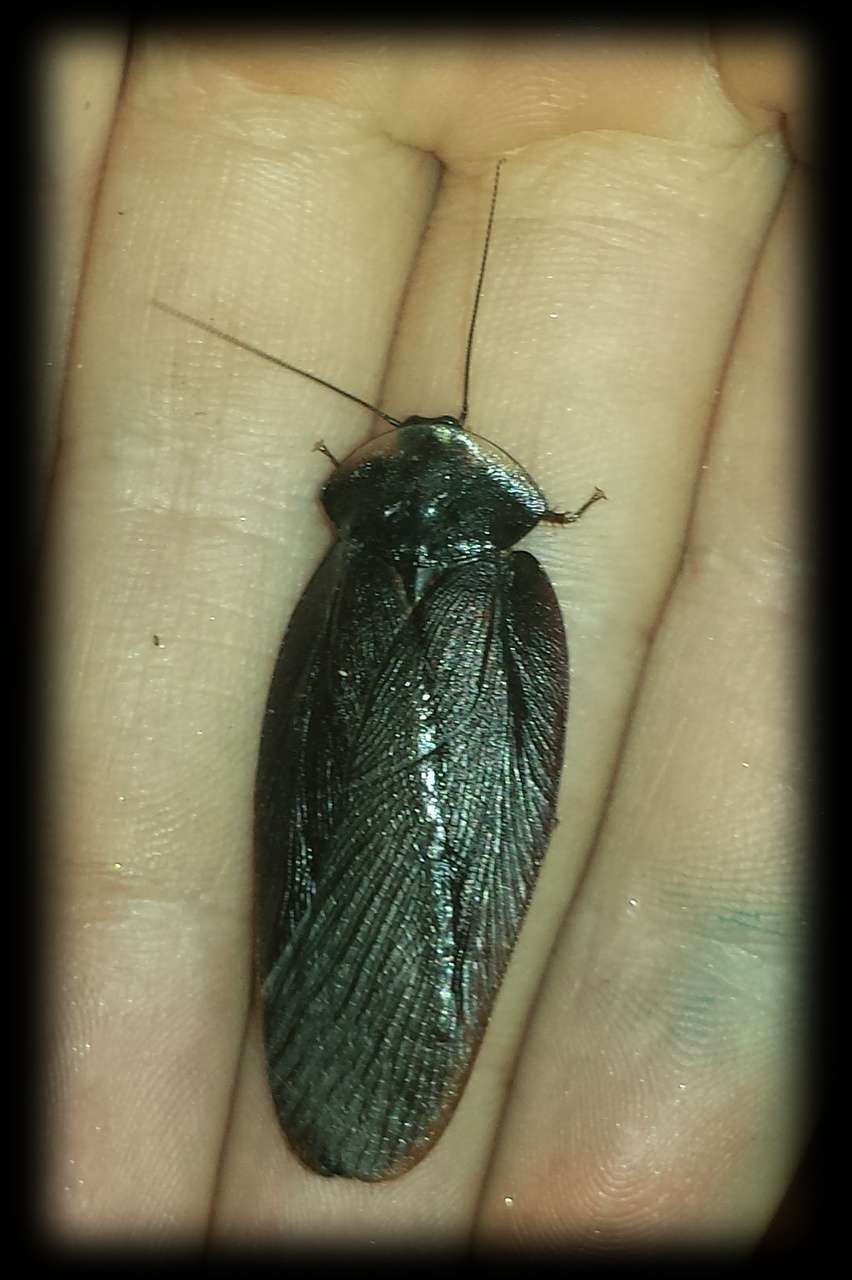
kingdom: Animalia
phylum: Arthropoda
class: Insecta
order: Blattodea
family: Blaberidae
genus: Laxta
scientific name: Laxta granicollis
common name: Bark cockroach
